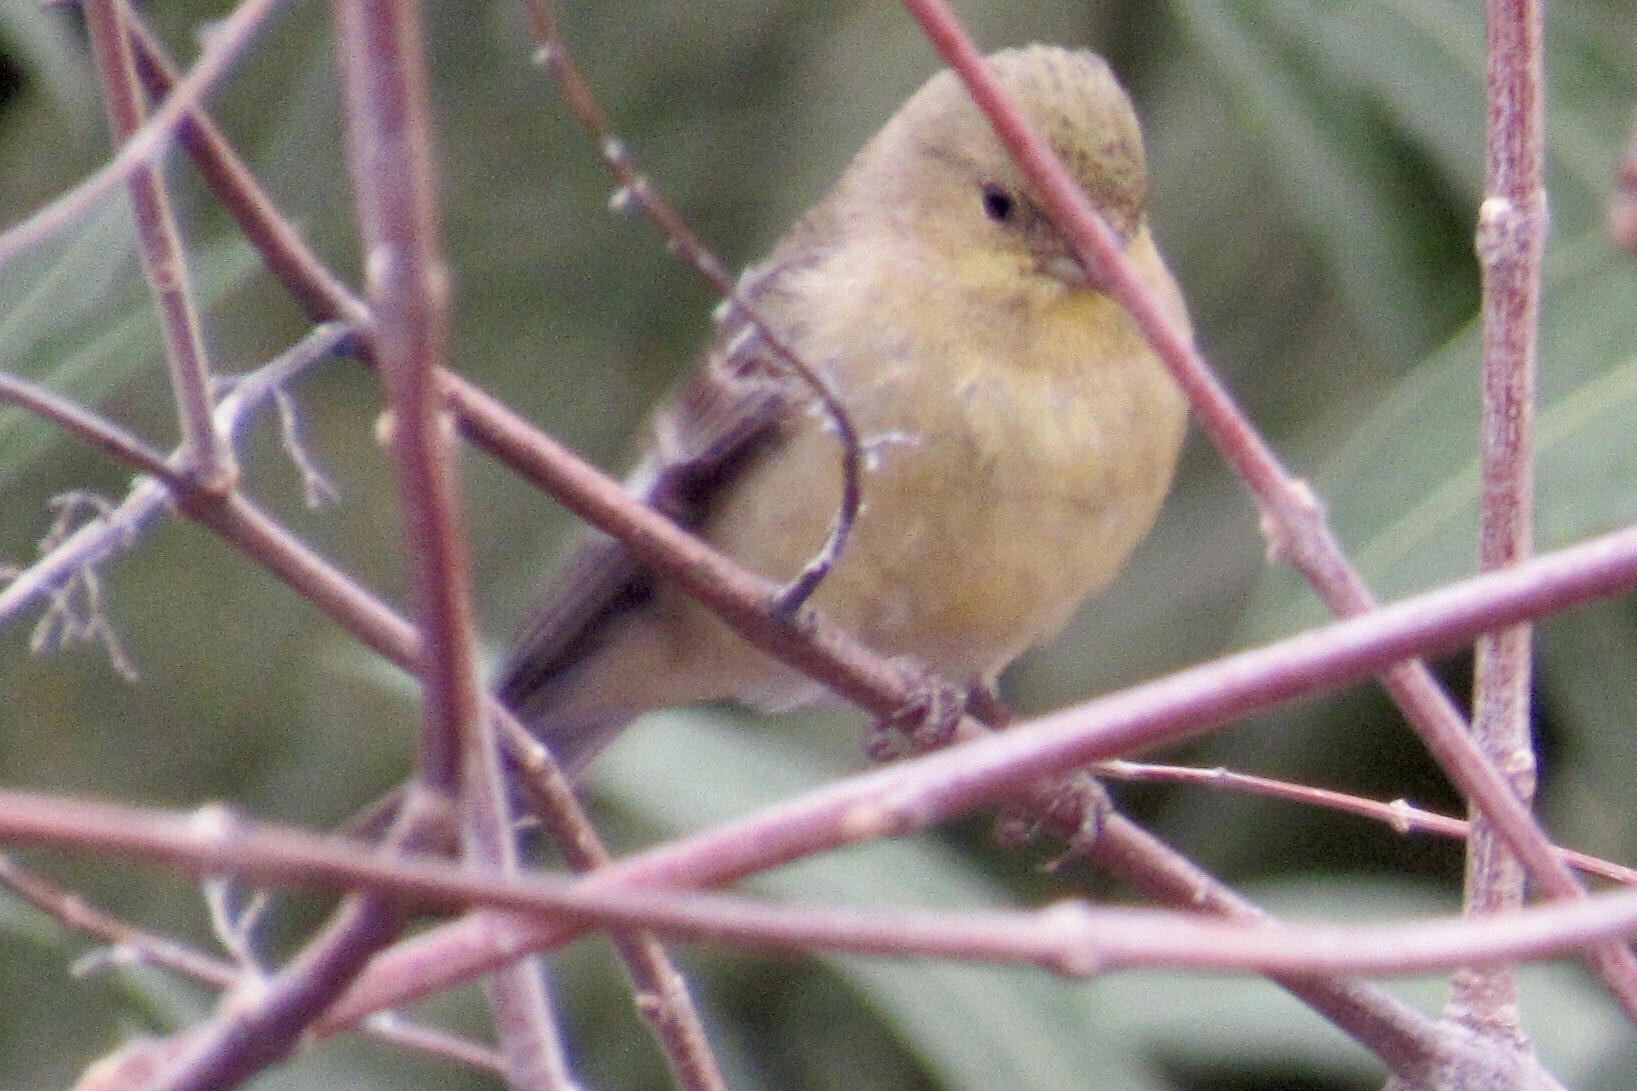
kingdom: Animalia
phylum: Chordata
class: Aves
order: Passeriformes
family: Fringillidae
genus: Spinus
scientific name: Spinus psaltria
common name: Lesser goldfinch
